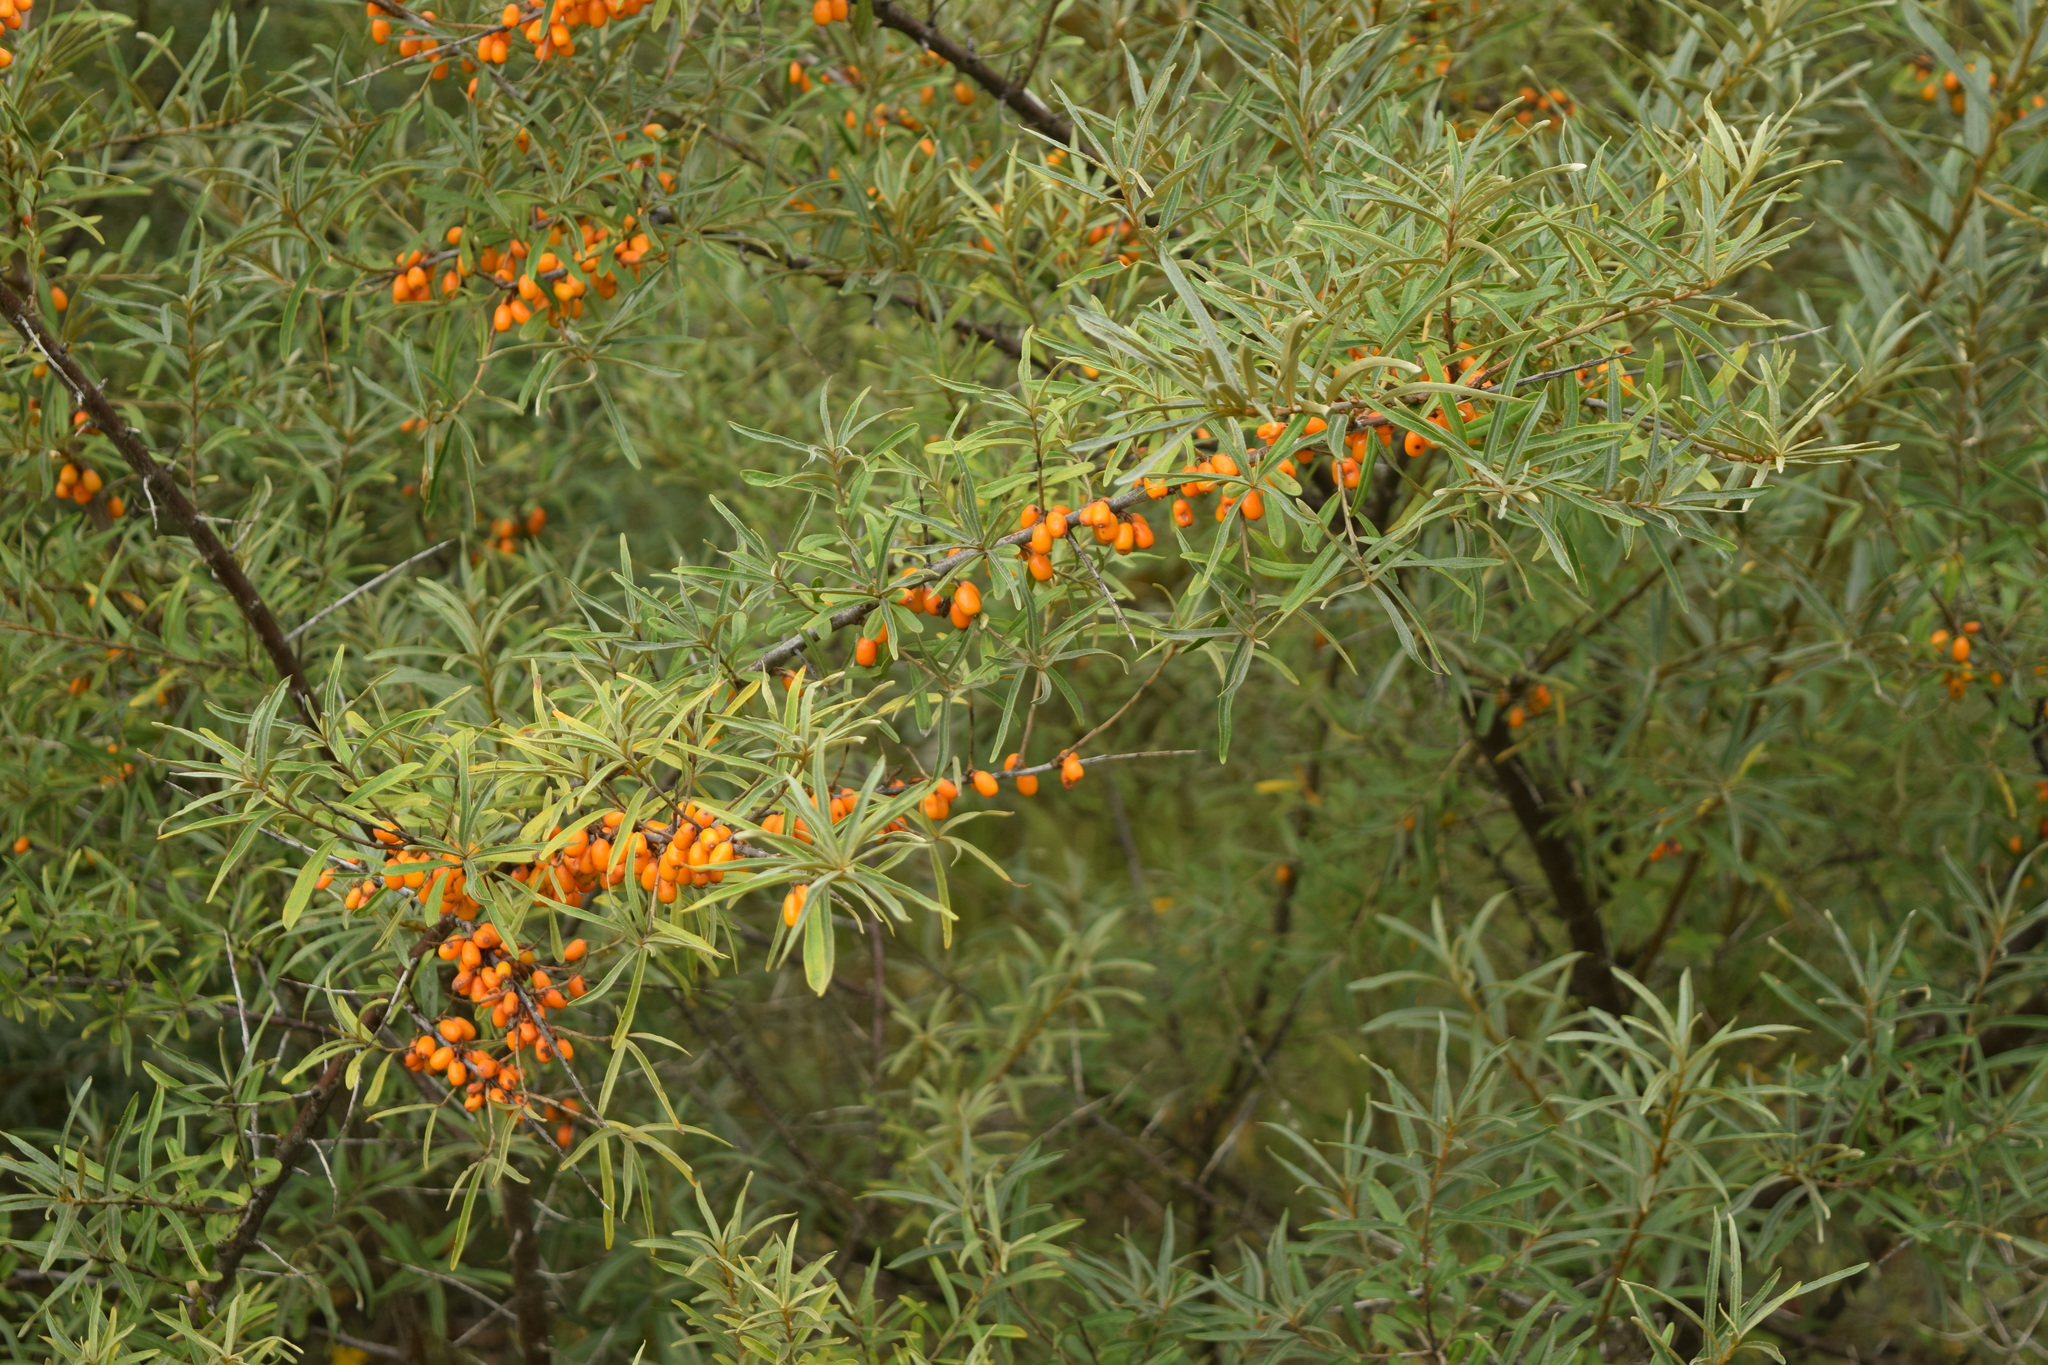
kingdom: Plantae
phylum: Tracheophyta
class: Magnoliopsida
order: Rosales
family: Elaeagnaceae
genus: Hippophae
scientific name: Hippophae rhamnoides
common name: Sea-buckthorn
